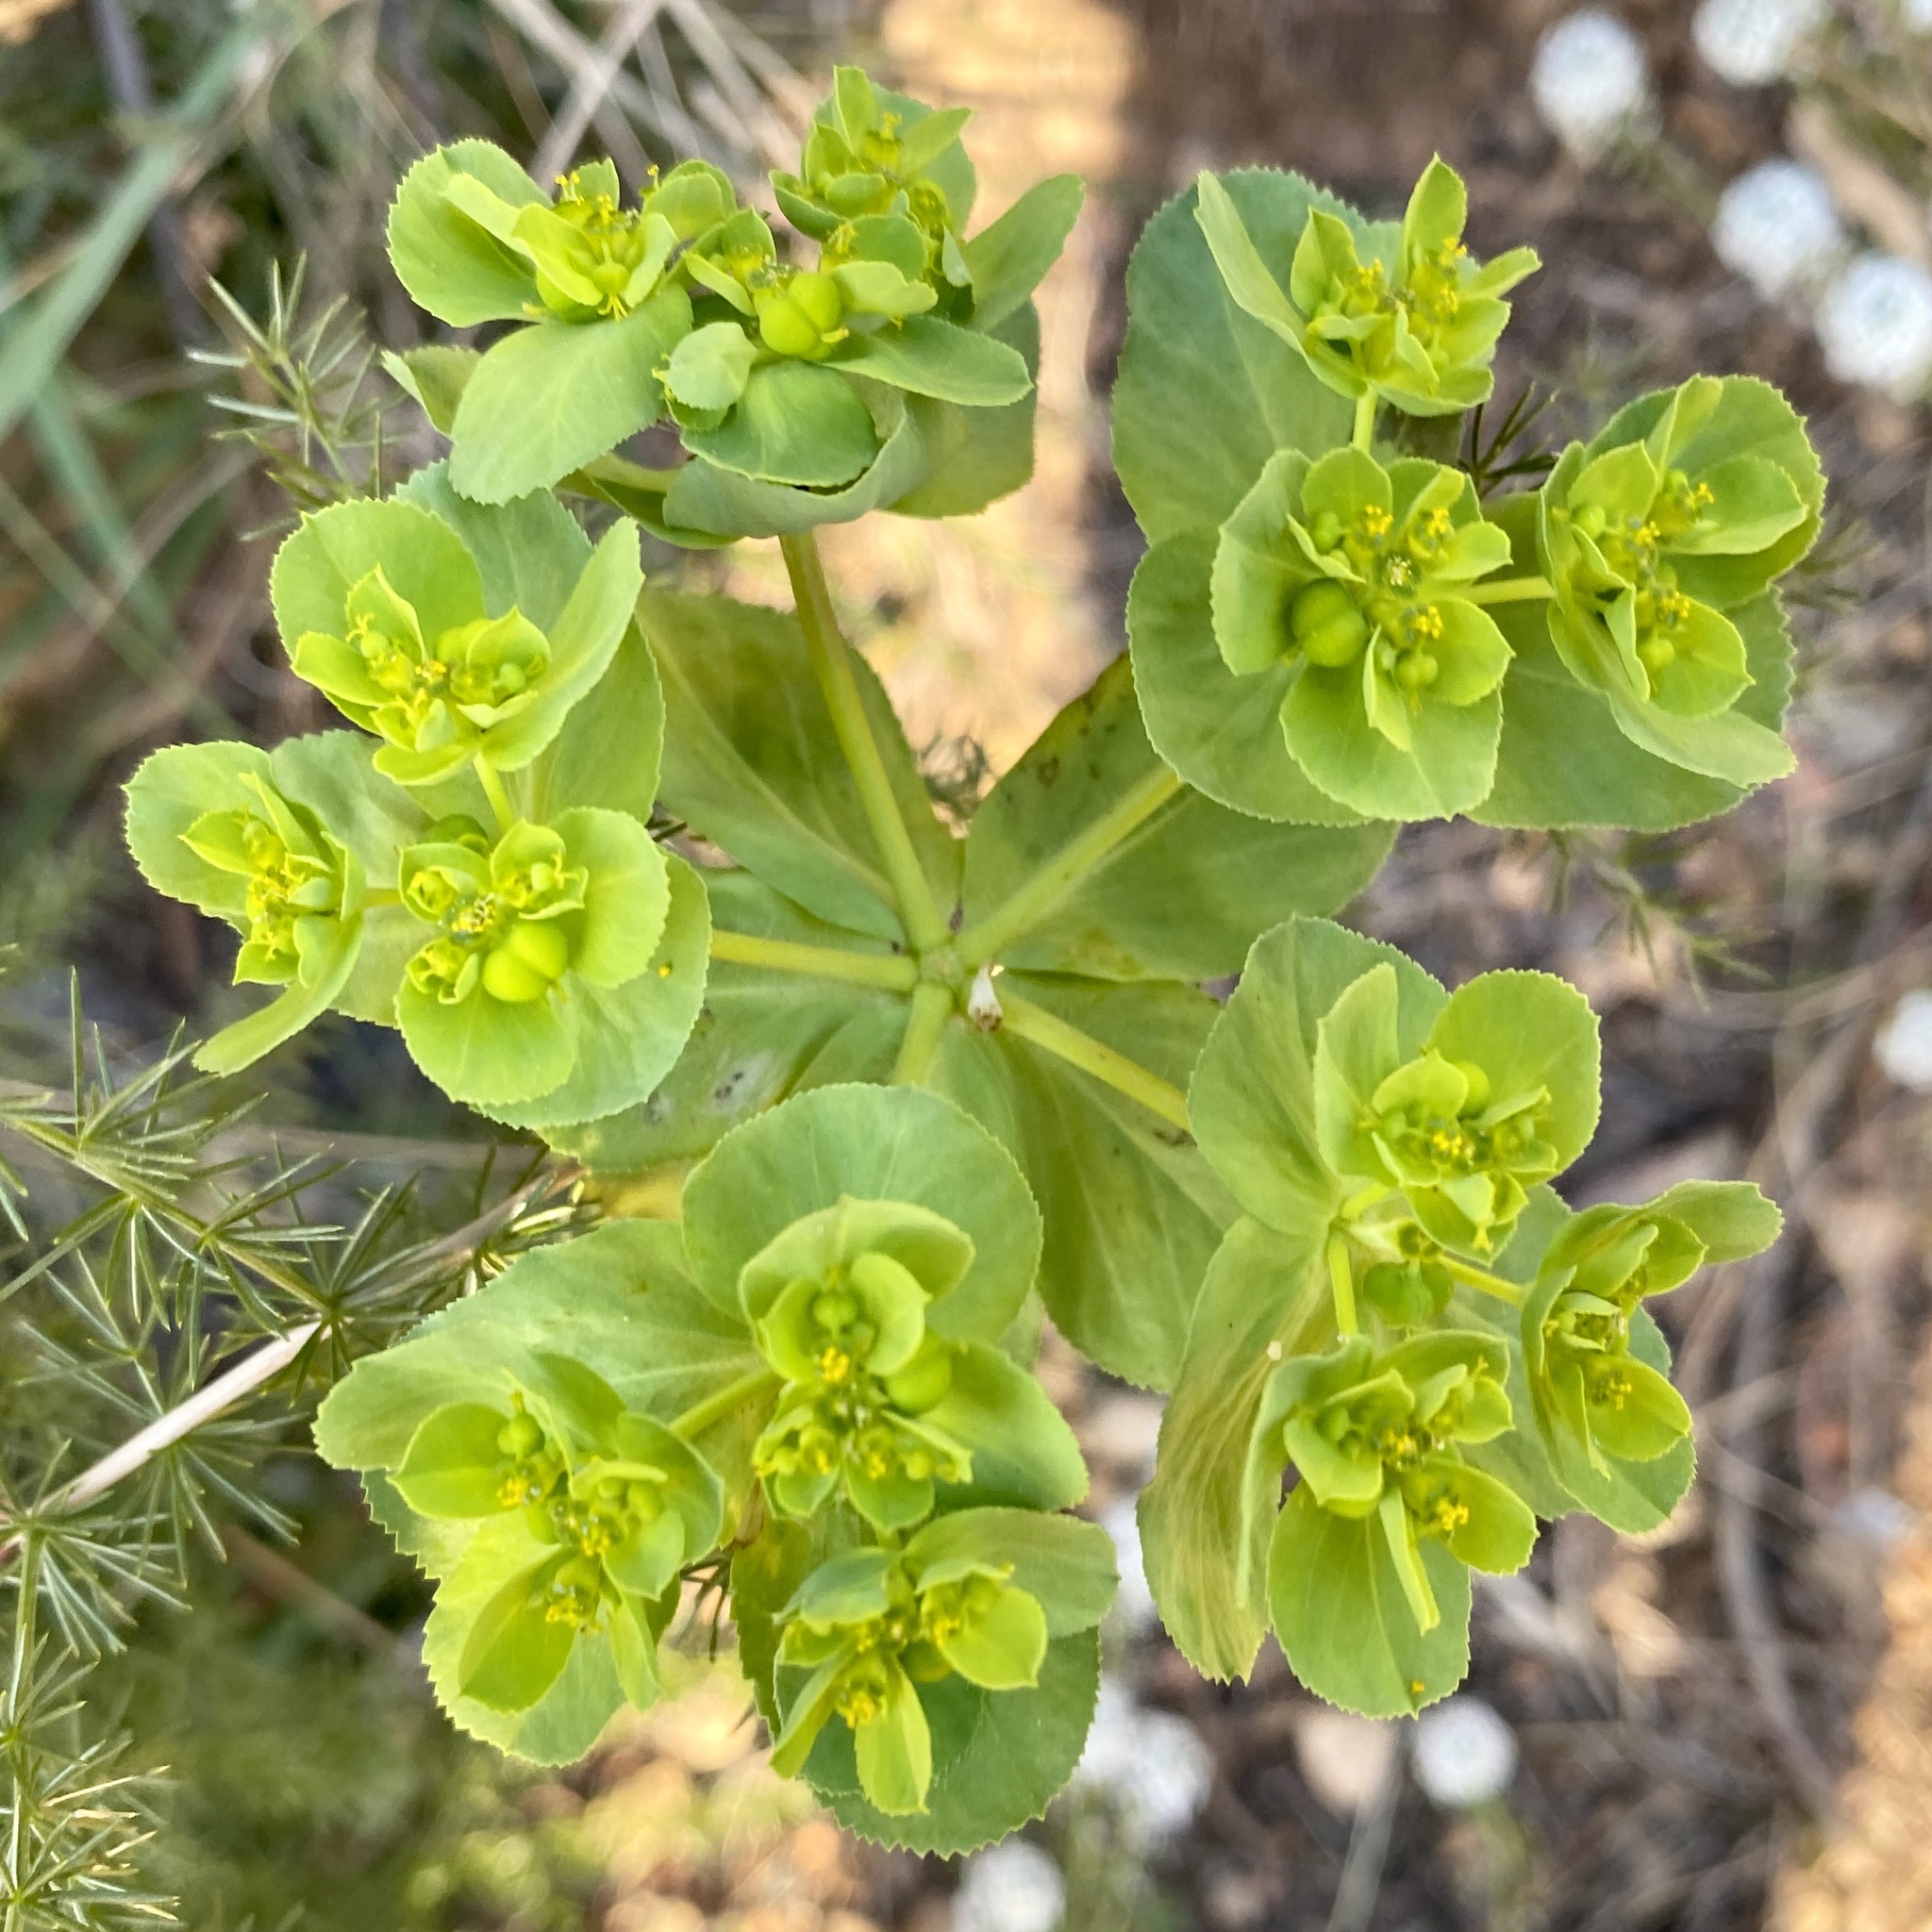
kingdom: Plantae
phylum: Tracheophyta
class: Magnoliopsida
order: Malpighiales
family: Euphorbiaceae
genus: Euphorbia
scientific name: Euphorbia helioscopia
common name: Sun spurge
